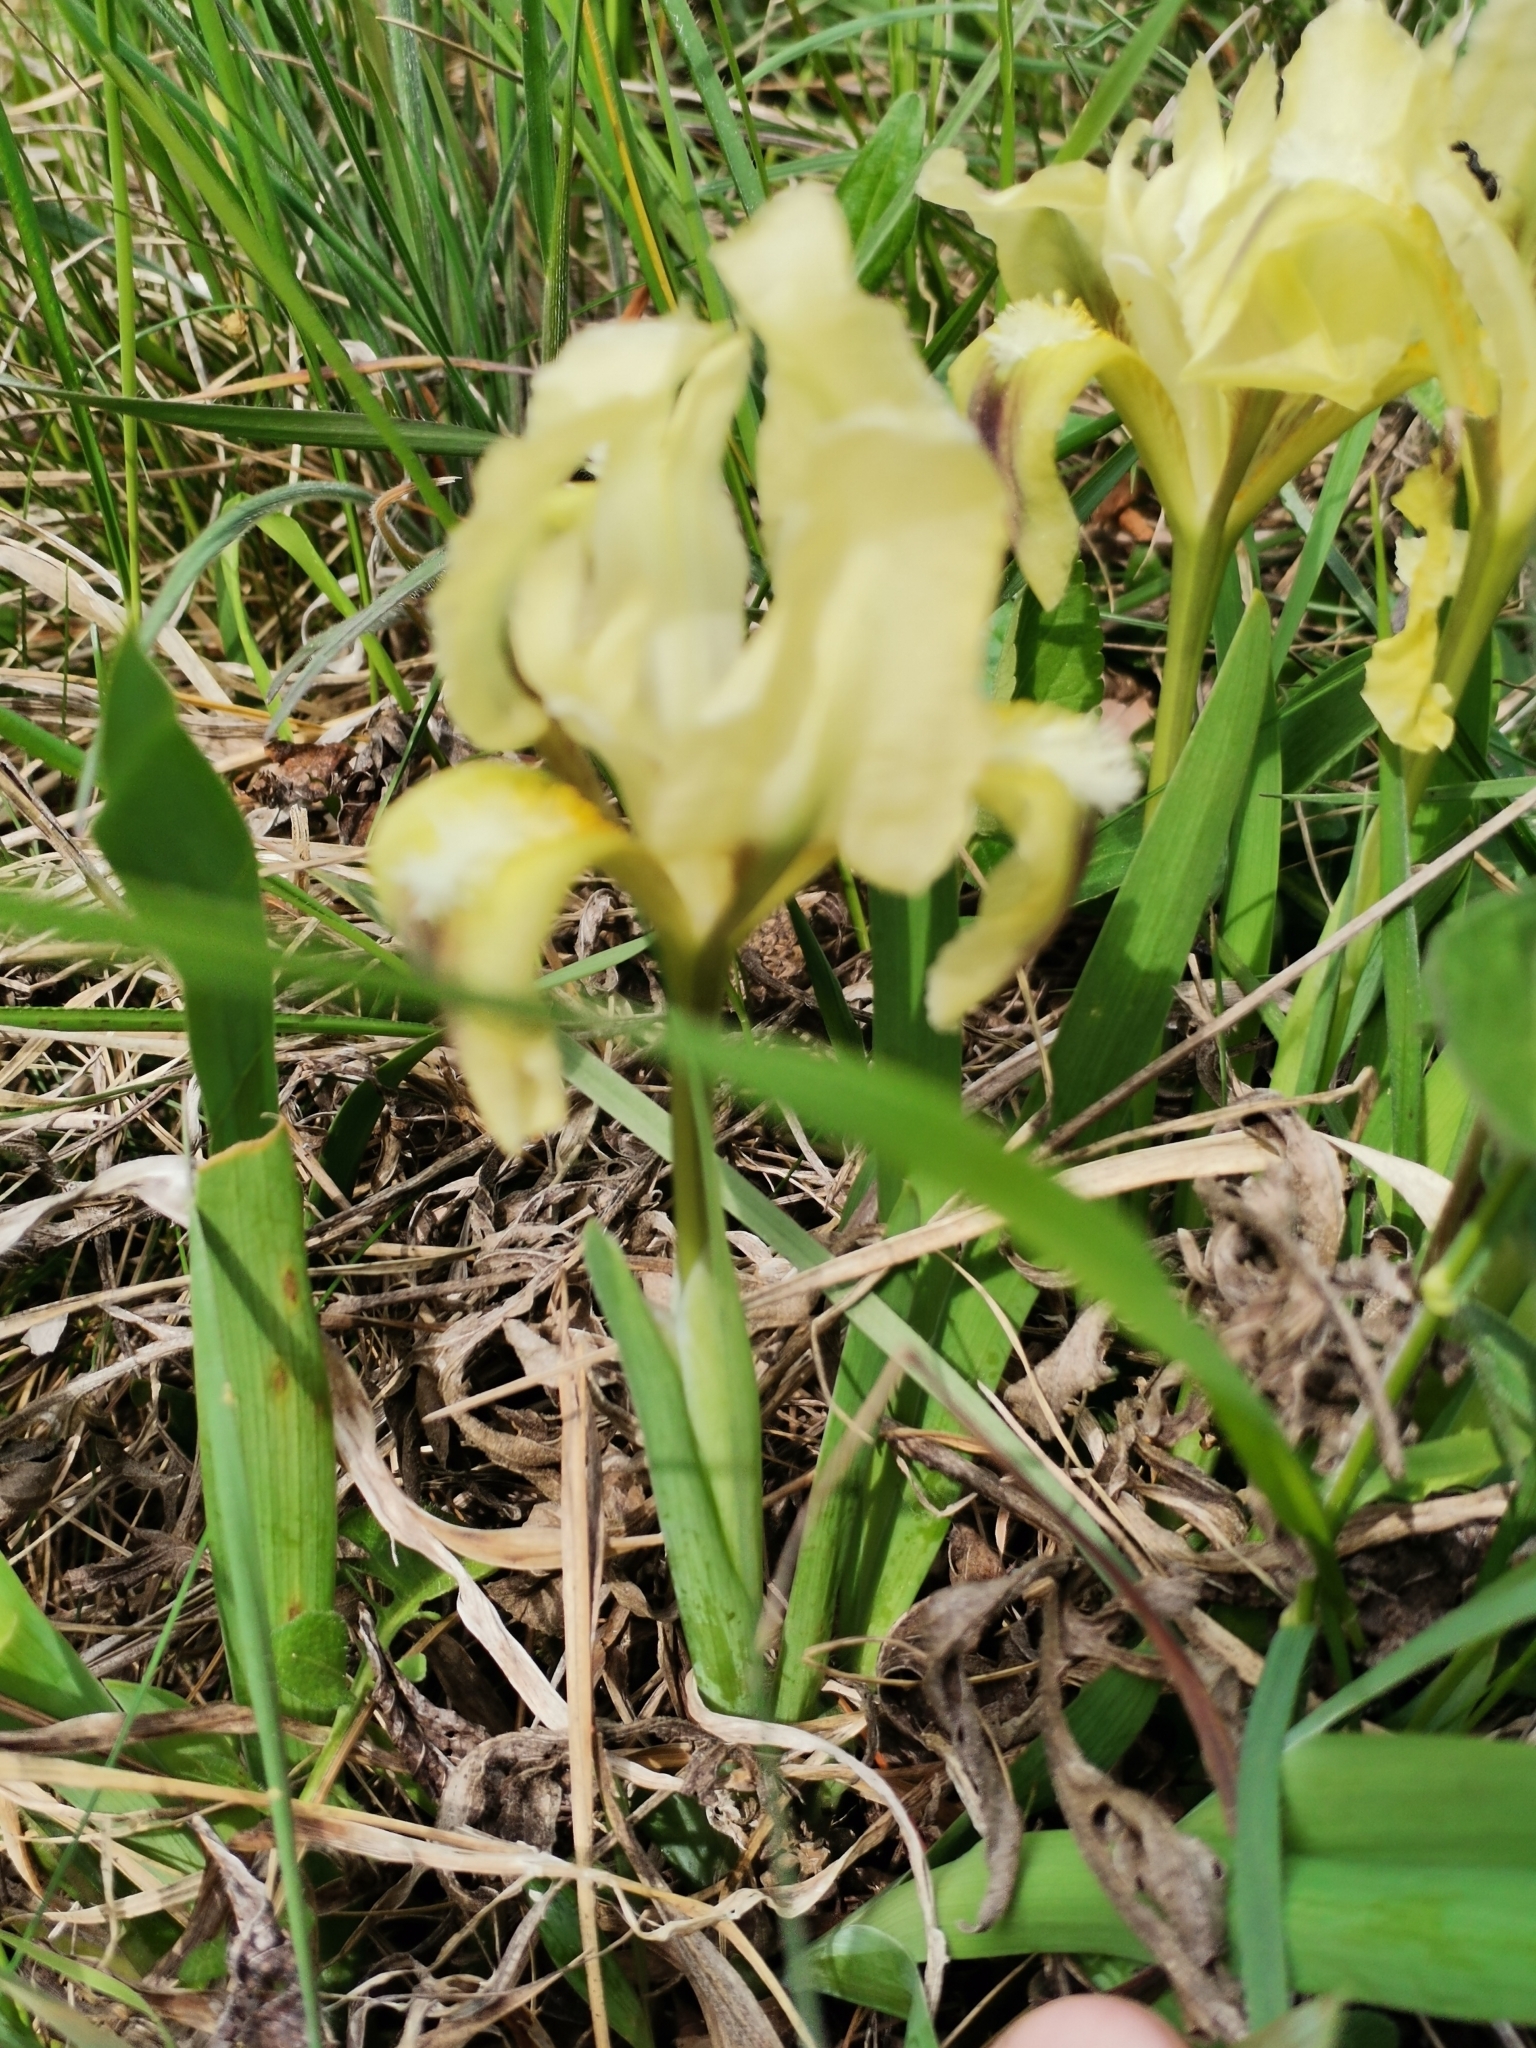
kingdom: Plantae
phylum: Tracheophyta
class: Liliopsida
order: Asparagales
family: Iridaceae
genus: Iris
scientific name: Iris pumila
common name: Dwarf iris
